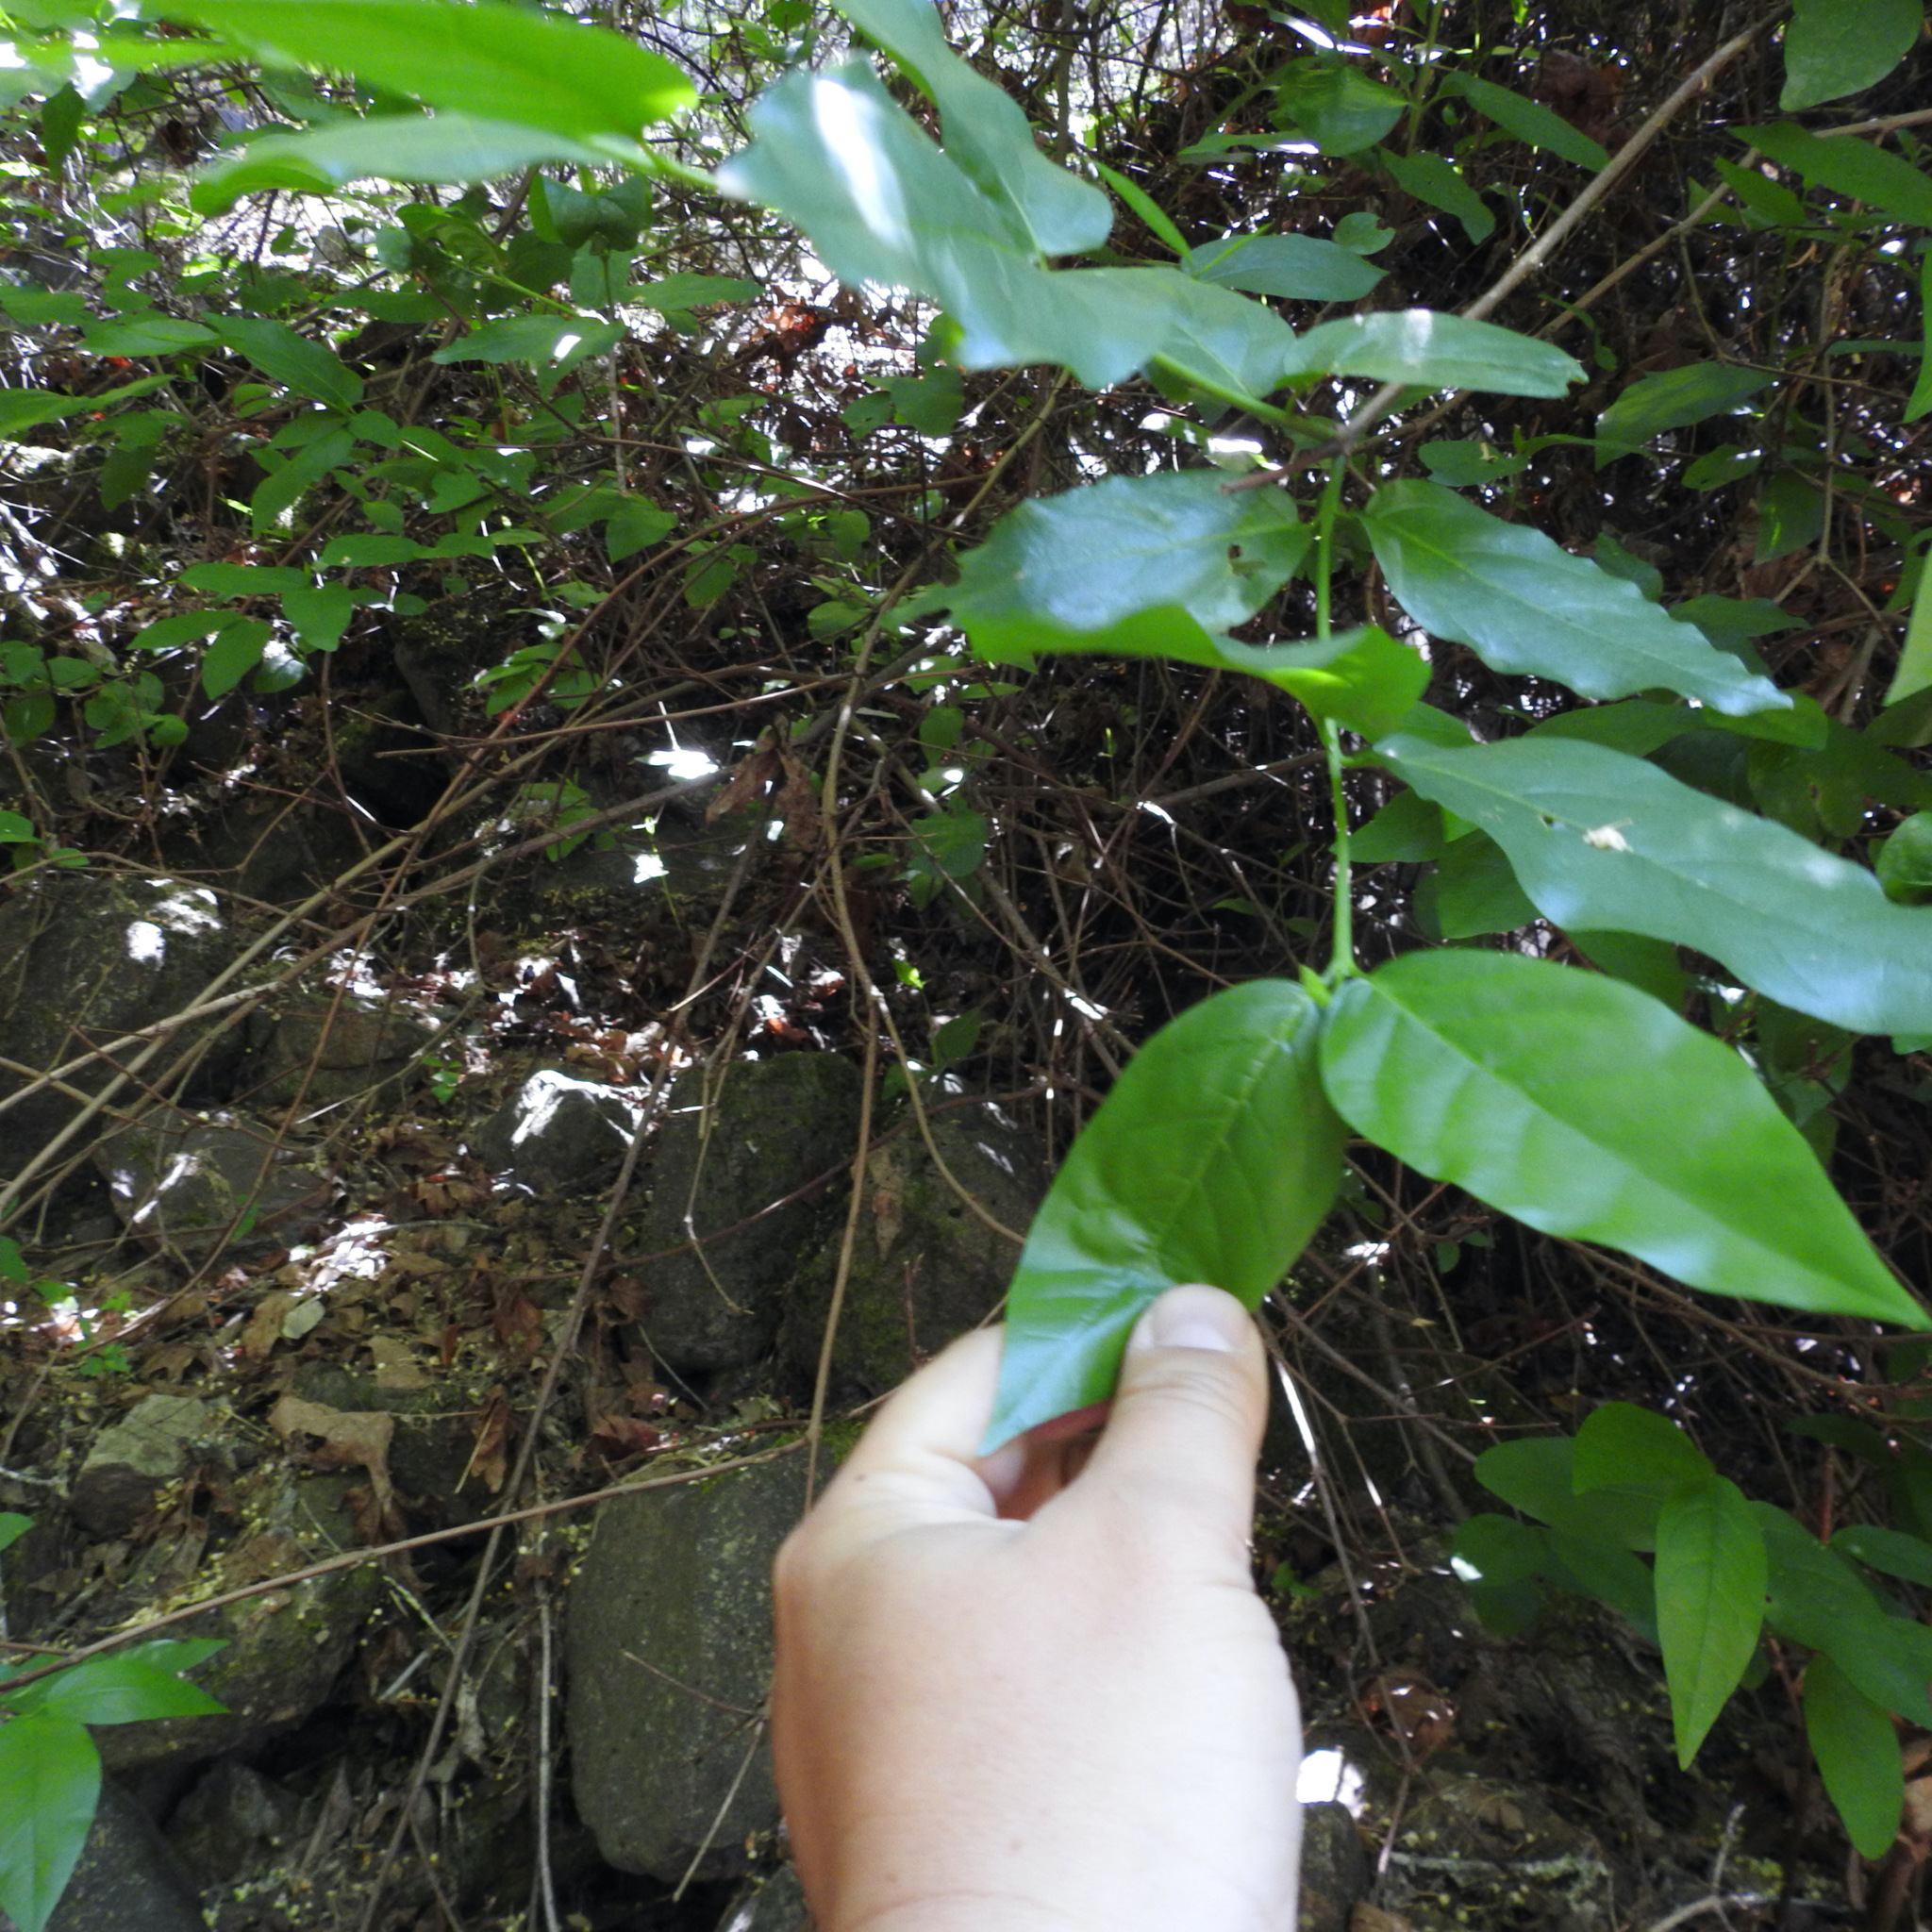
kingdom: Plantae
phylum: Tracheophyta
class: Magnoliopsida
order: Laurales
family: Calycanthaceae
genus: Calycanthus
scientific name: Calycanthus occidentalis
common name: California spicebush
